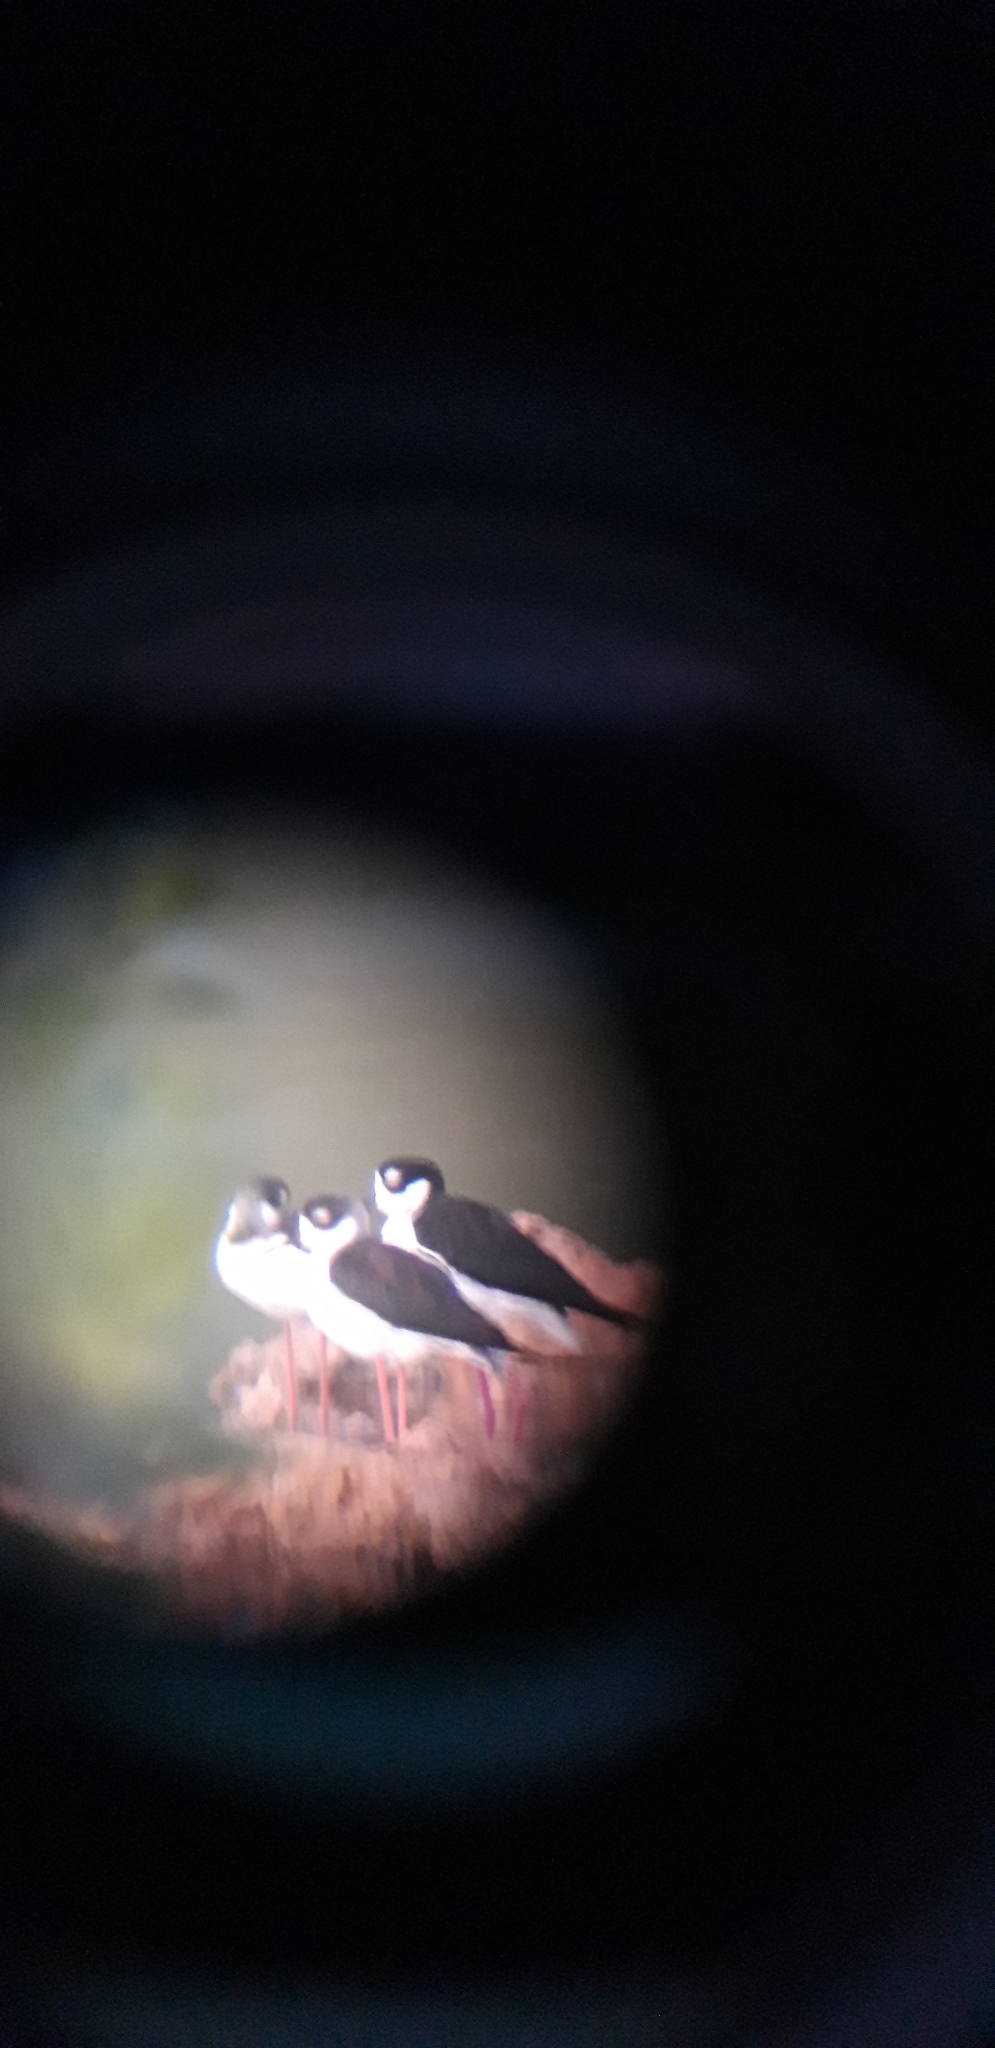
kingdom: Animalia
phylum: Chordata
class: Aves
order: Charadriiformes
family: Recurvirostridae
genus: Himantopus
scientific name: Himantopus mexicanus
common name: Black-necked stilt
